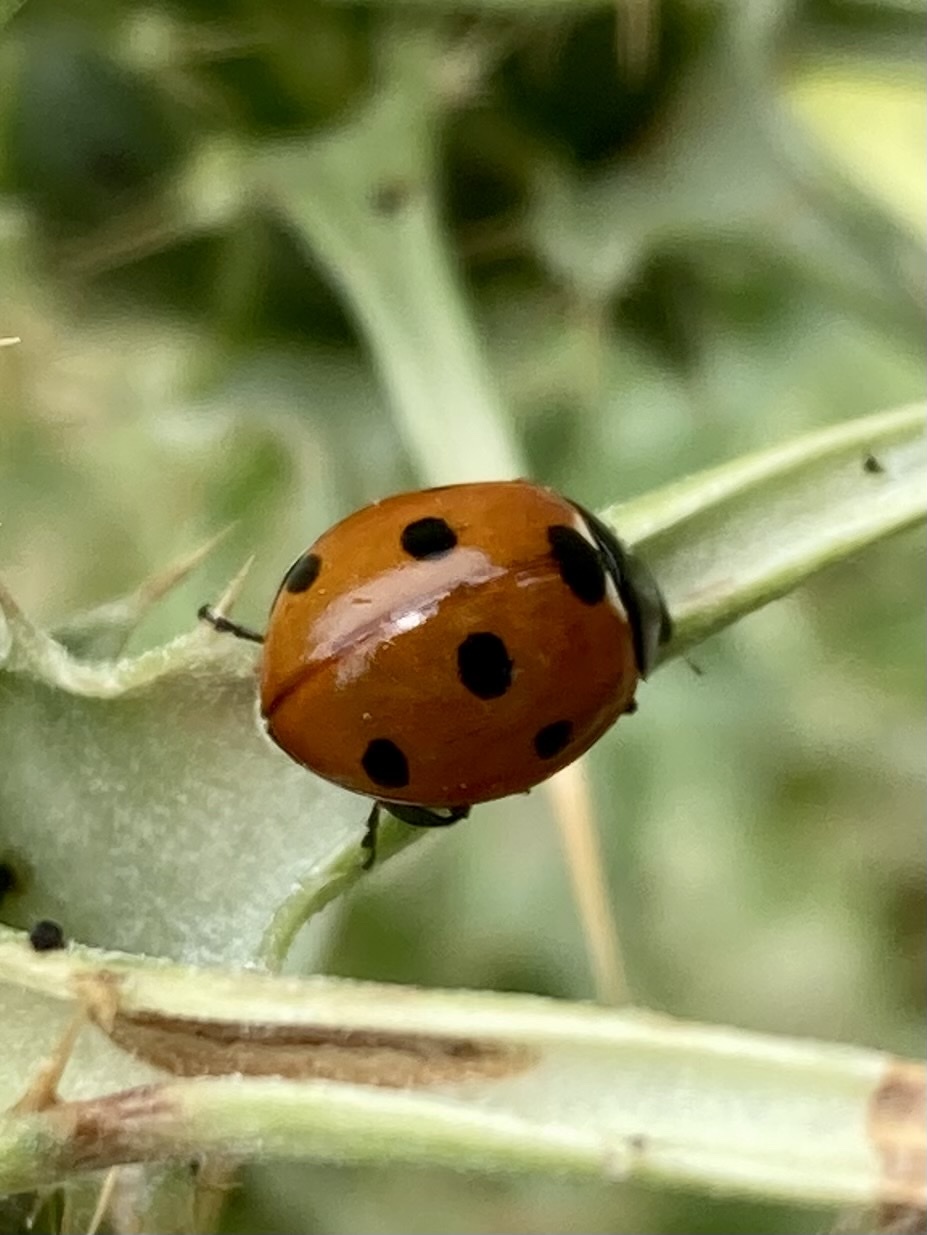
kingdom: Animalia
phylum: Arthropoda
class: Insecta
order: Coleoptera
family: Coccinellidae
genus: Coccinella
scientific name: Coccinella septempunctata
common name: Sevenspotted lady beetle
